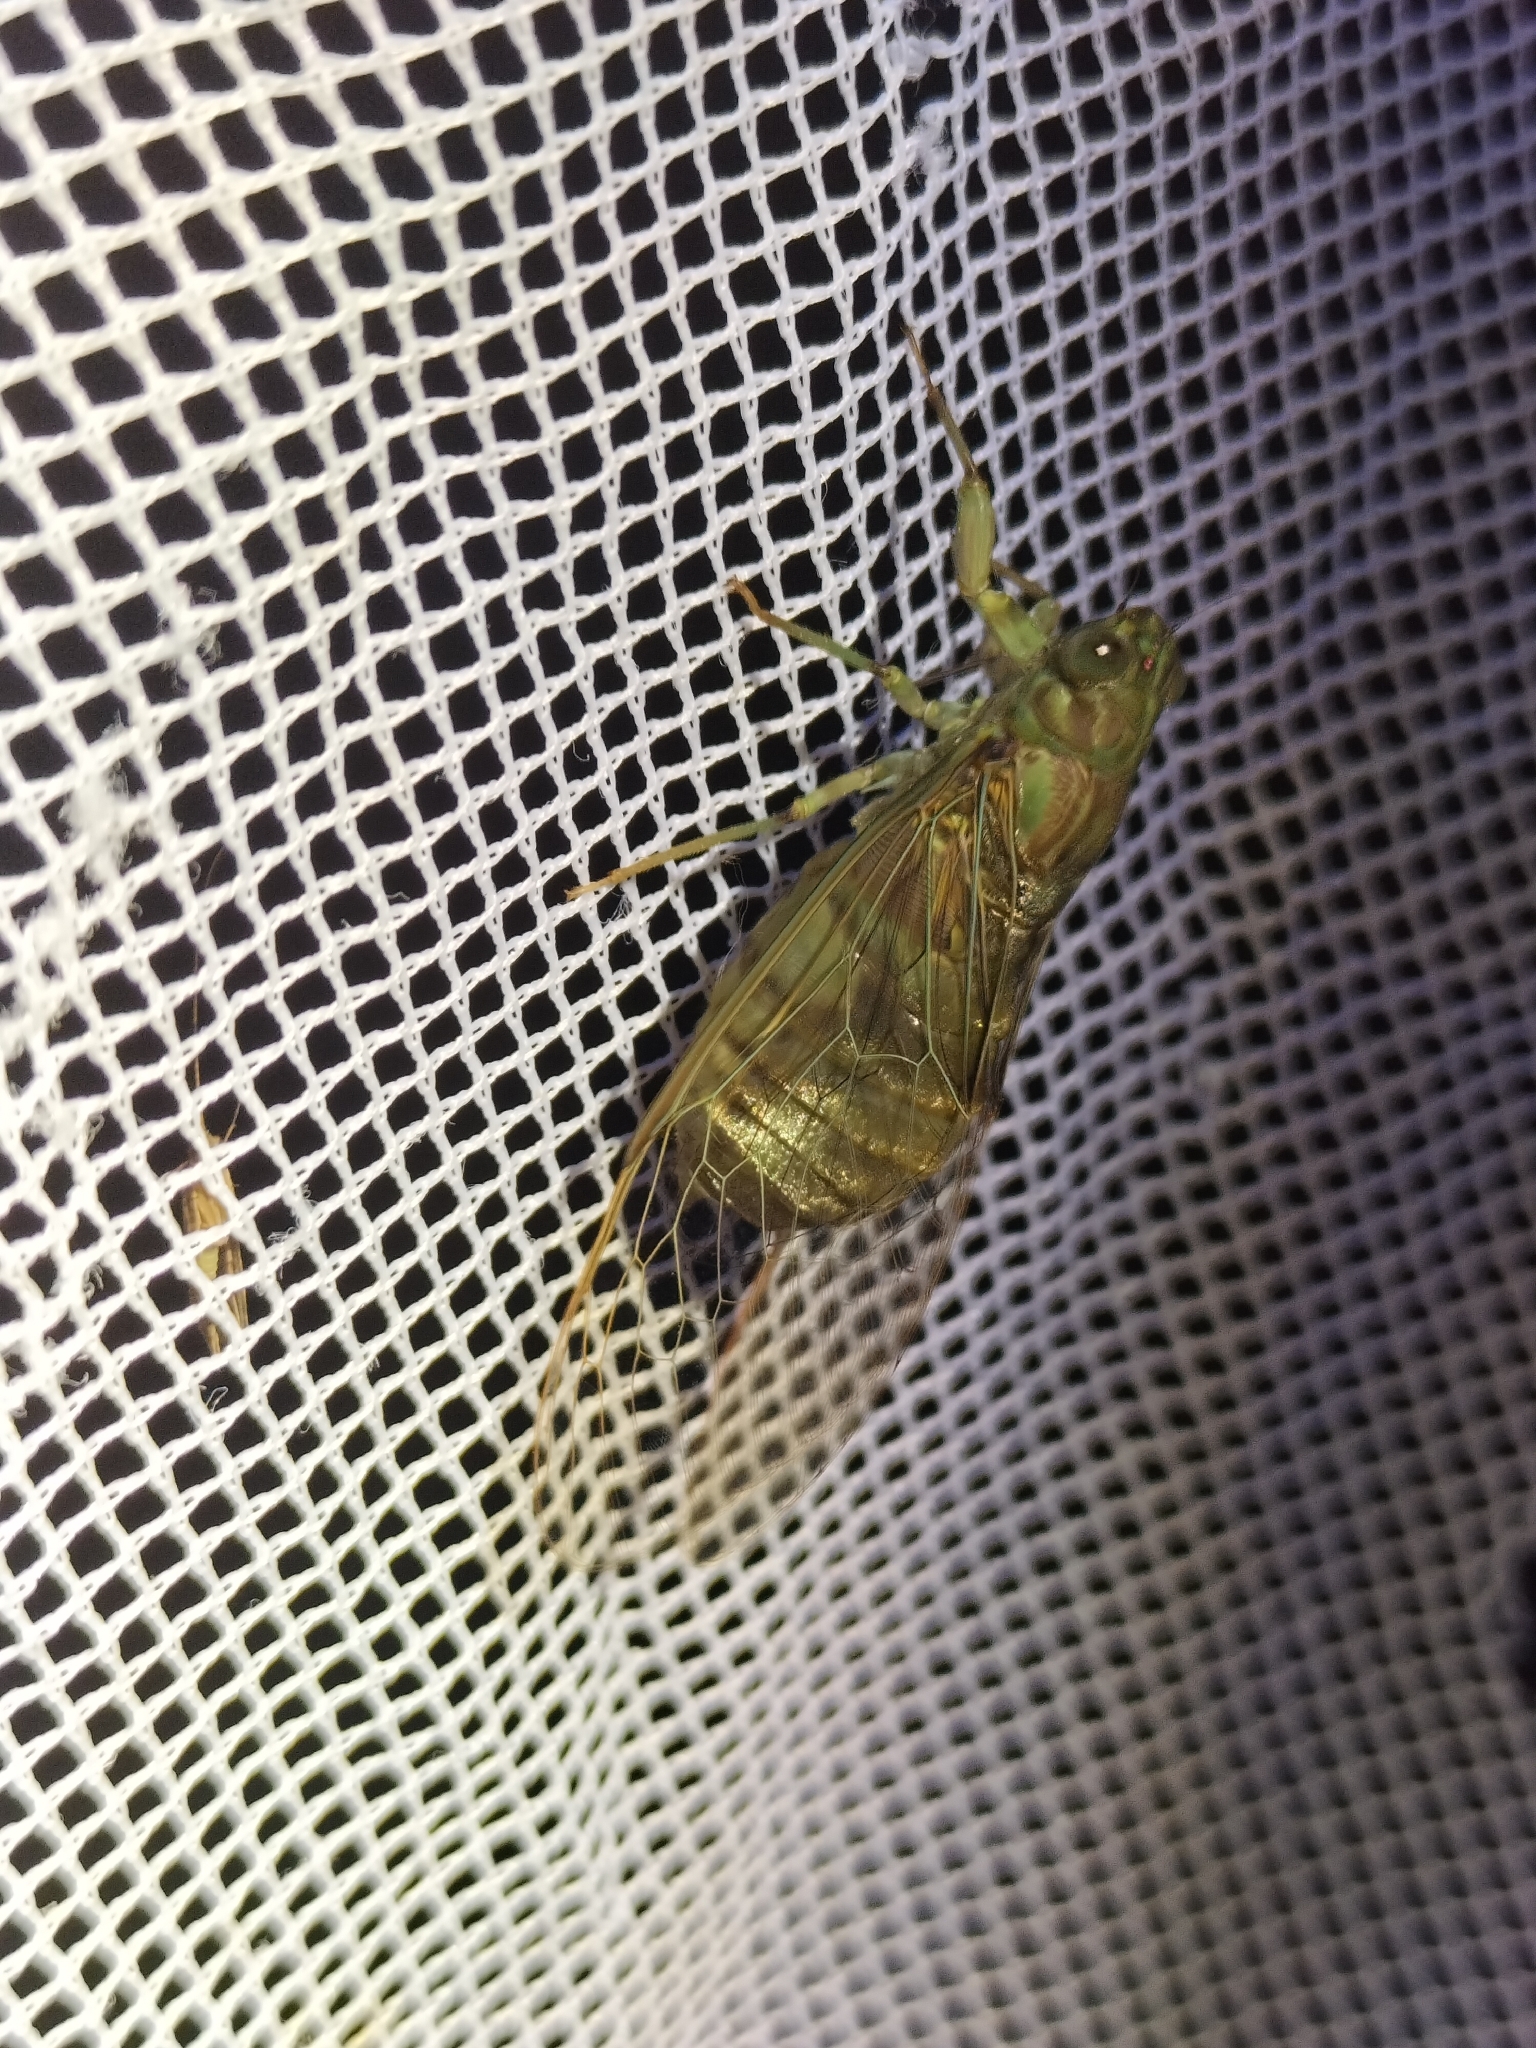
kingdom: Animalia
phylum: Arthropoda
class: Insecta
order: Hemiptera
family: Cicadidae
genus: Chlorocysta
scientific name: Chlorocysta suffusa
